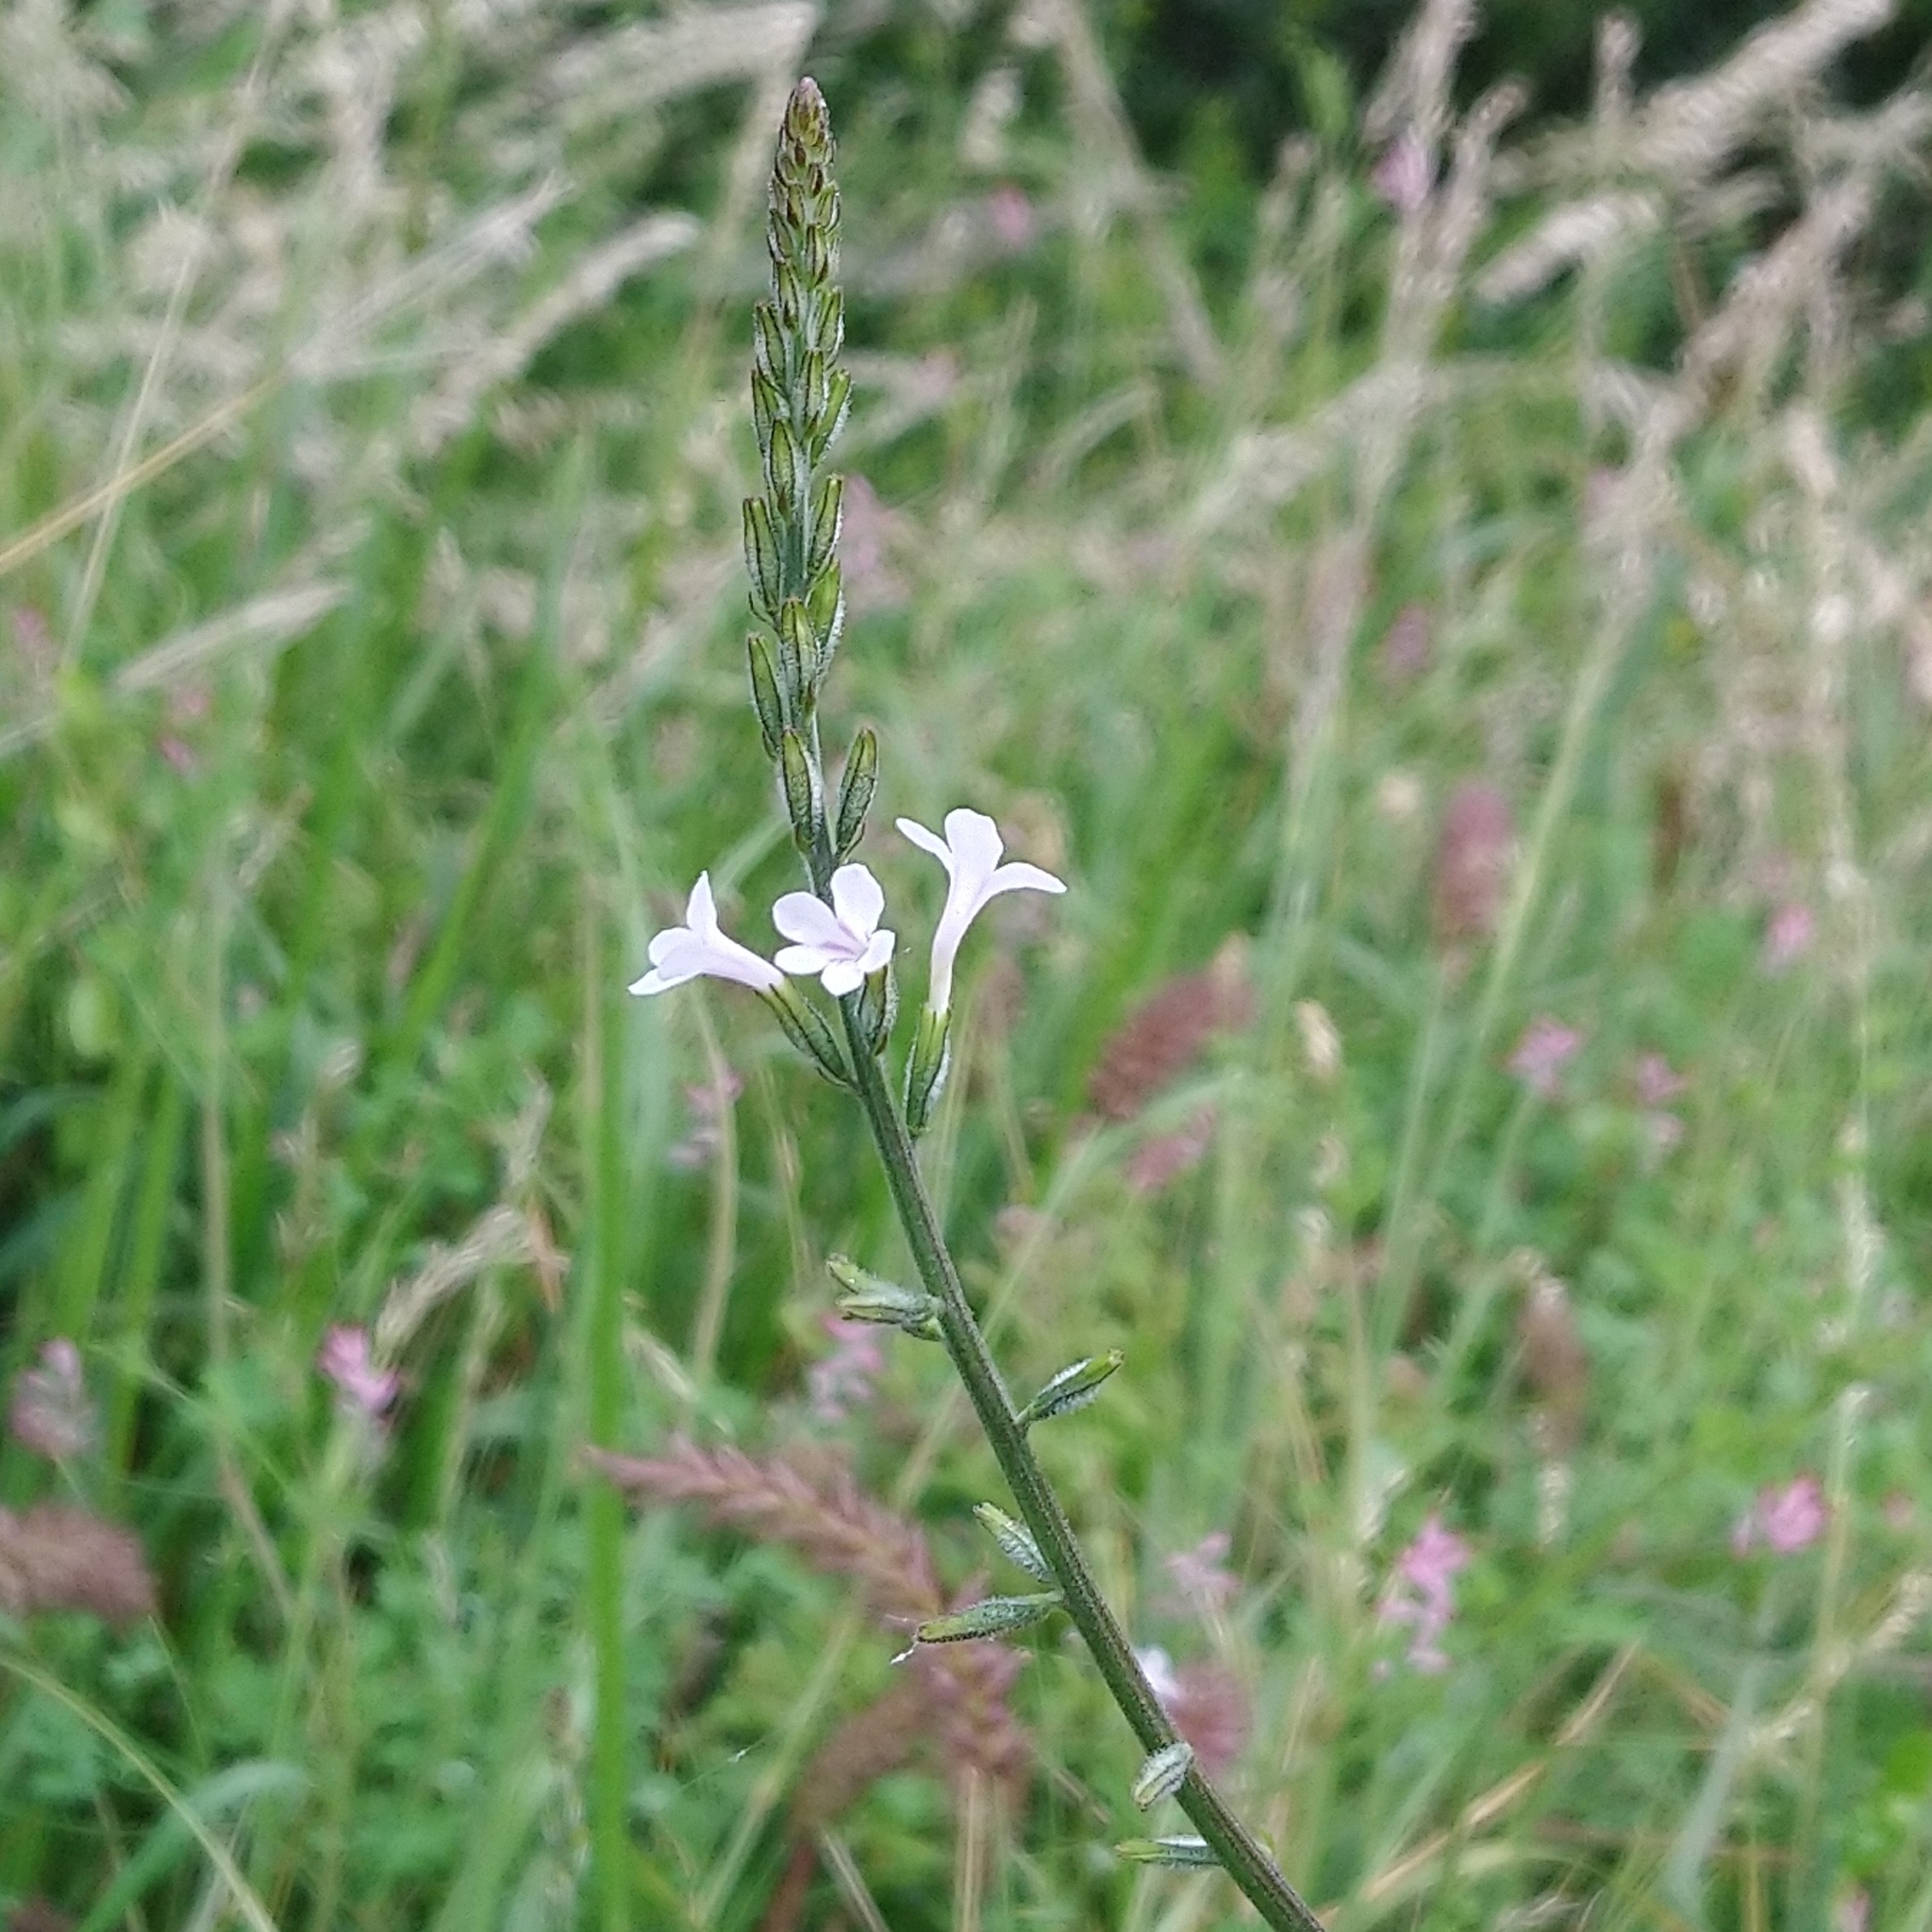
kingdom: Plantae
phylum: Tracheophyta
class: Magnoliopsida
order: Lamiales
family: Verbenaceae
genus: Priva
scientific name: Priva adhaerens
